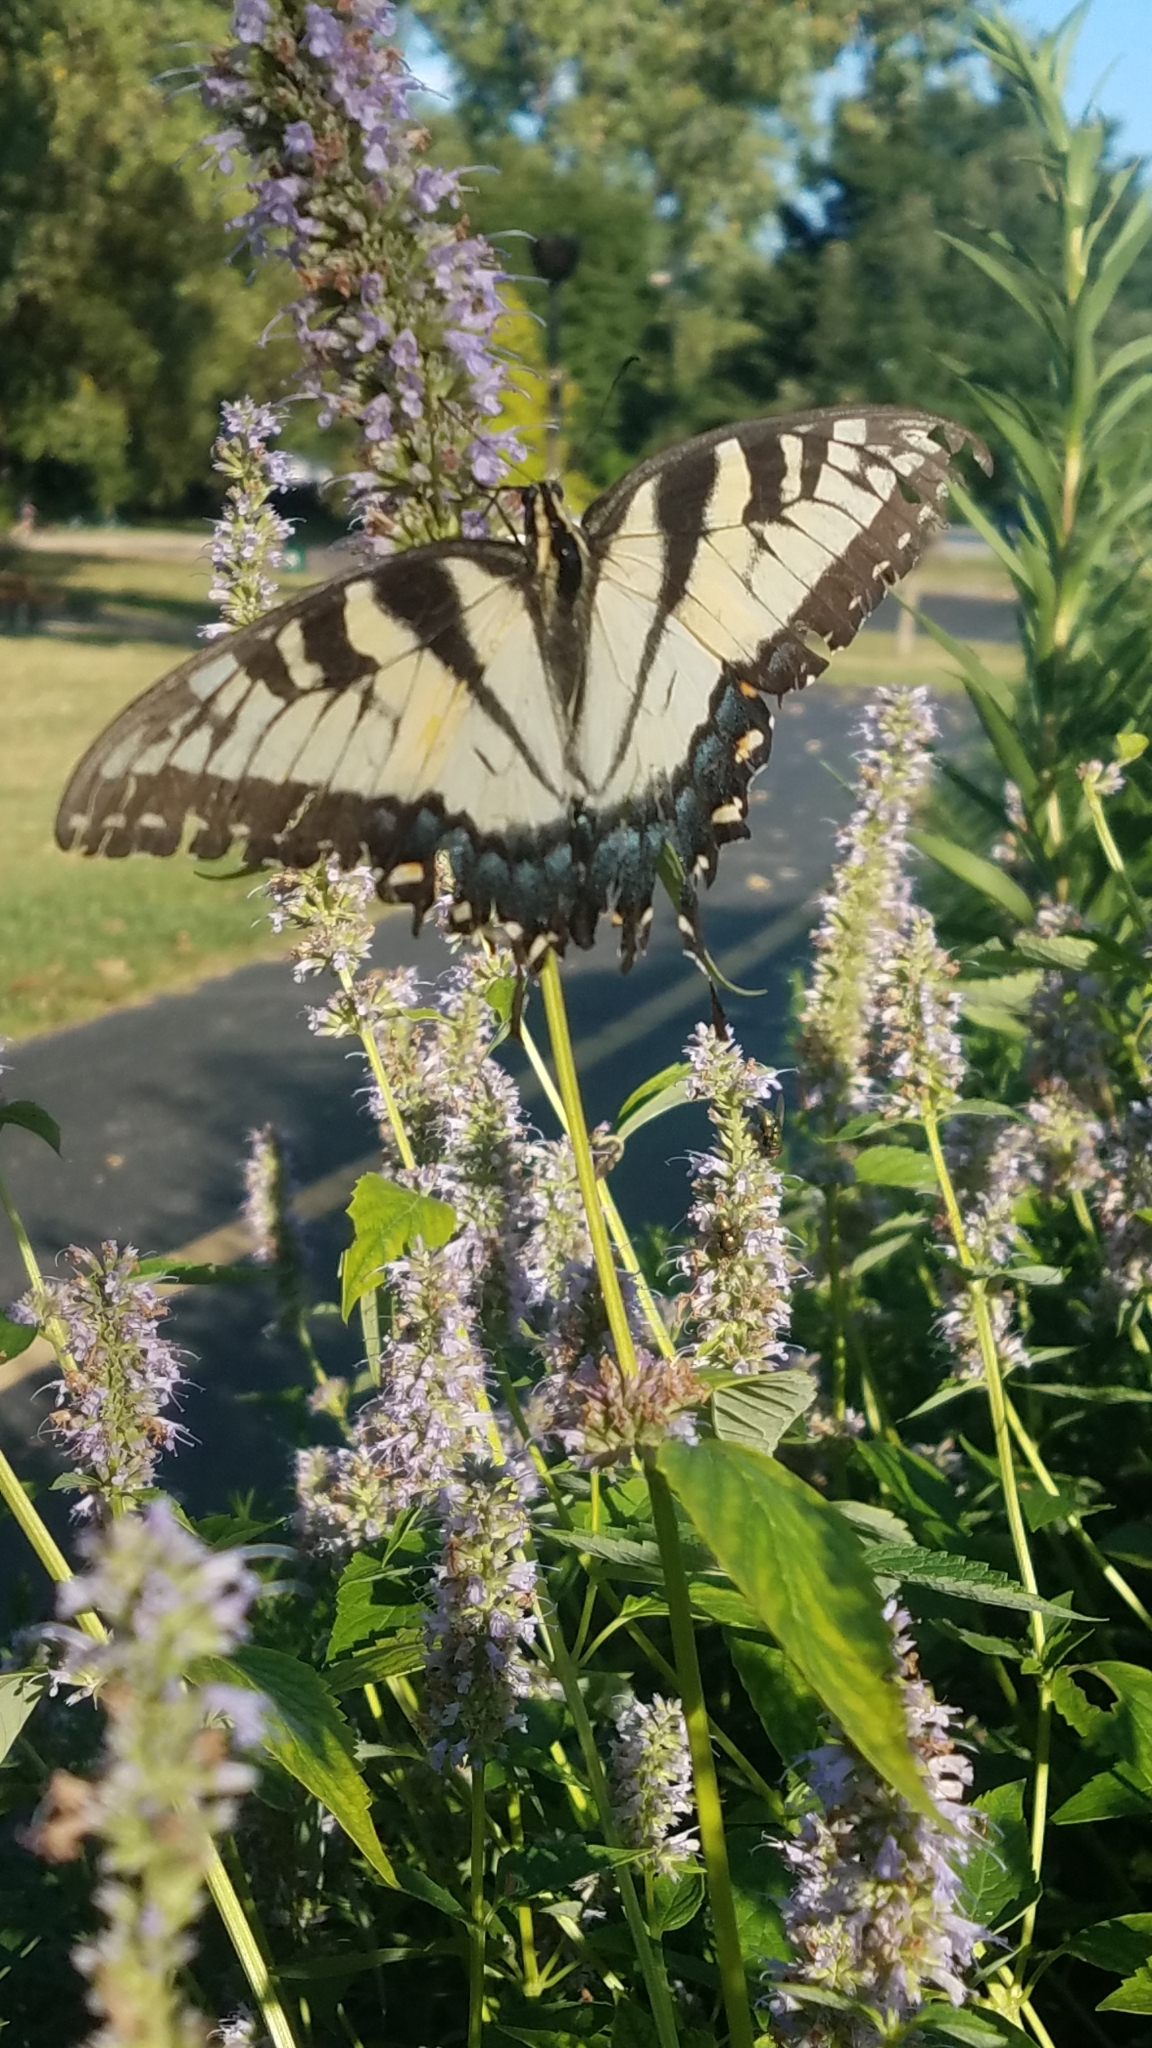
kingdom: Animalia
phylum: Arthropoda
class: Insecta
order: Lepidoptera
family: Papilionidae
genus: Papilio
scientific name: Papilio glaucus
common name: Tiger swallowtail
